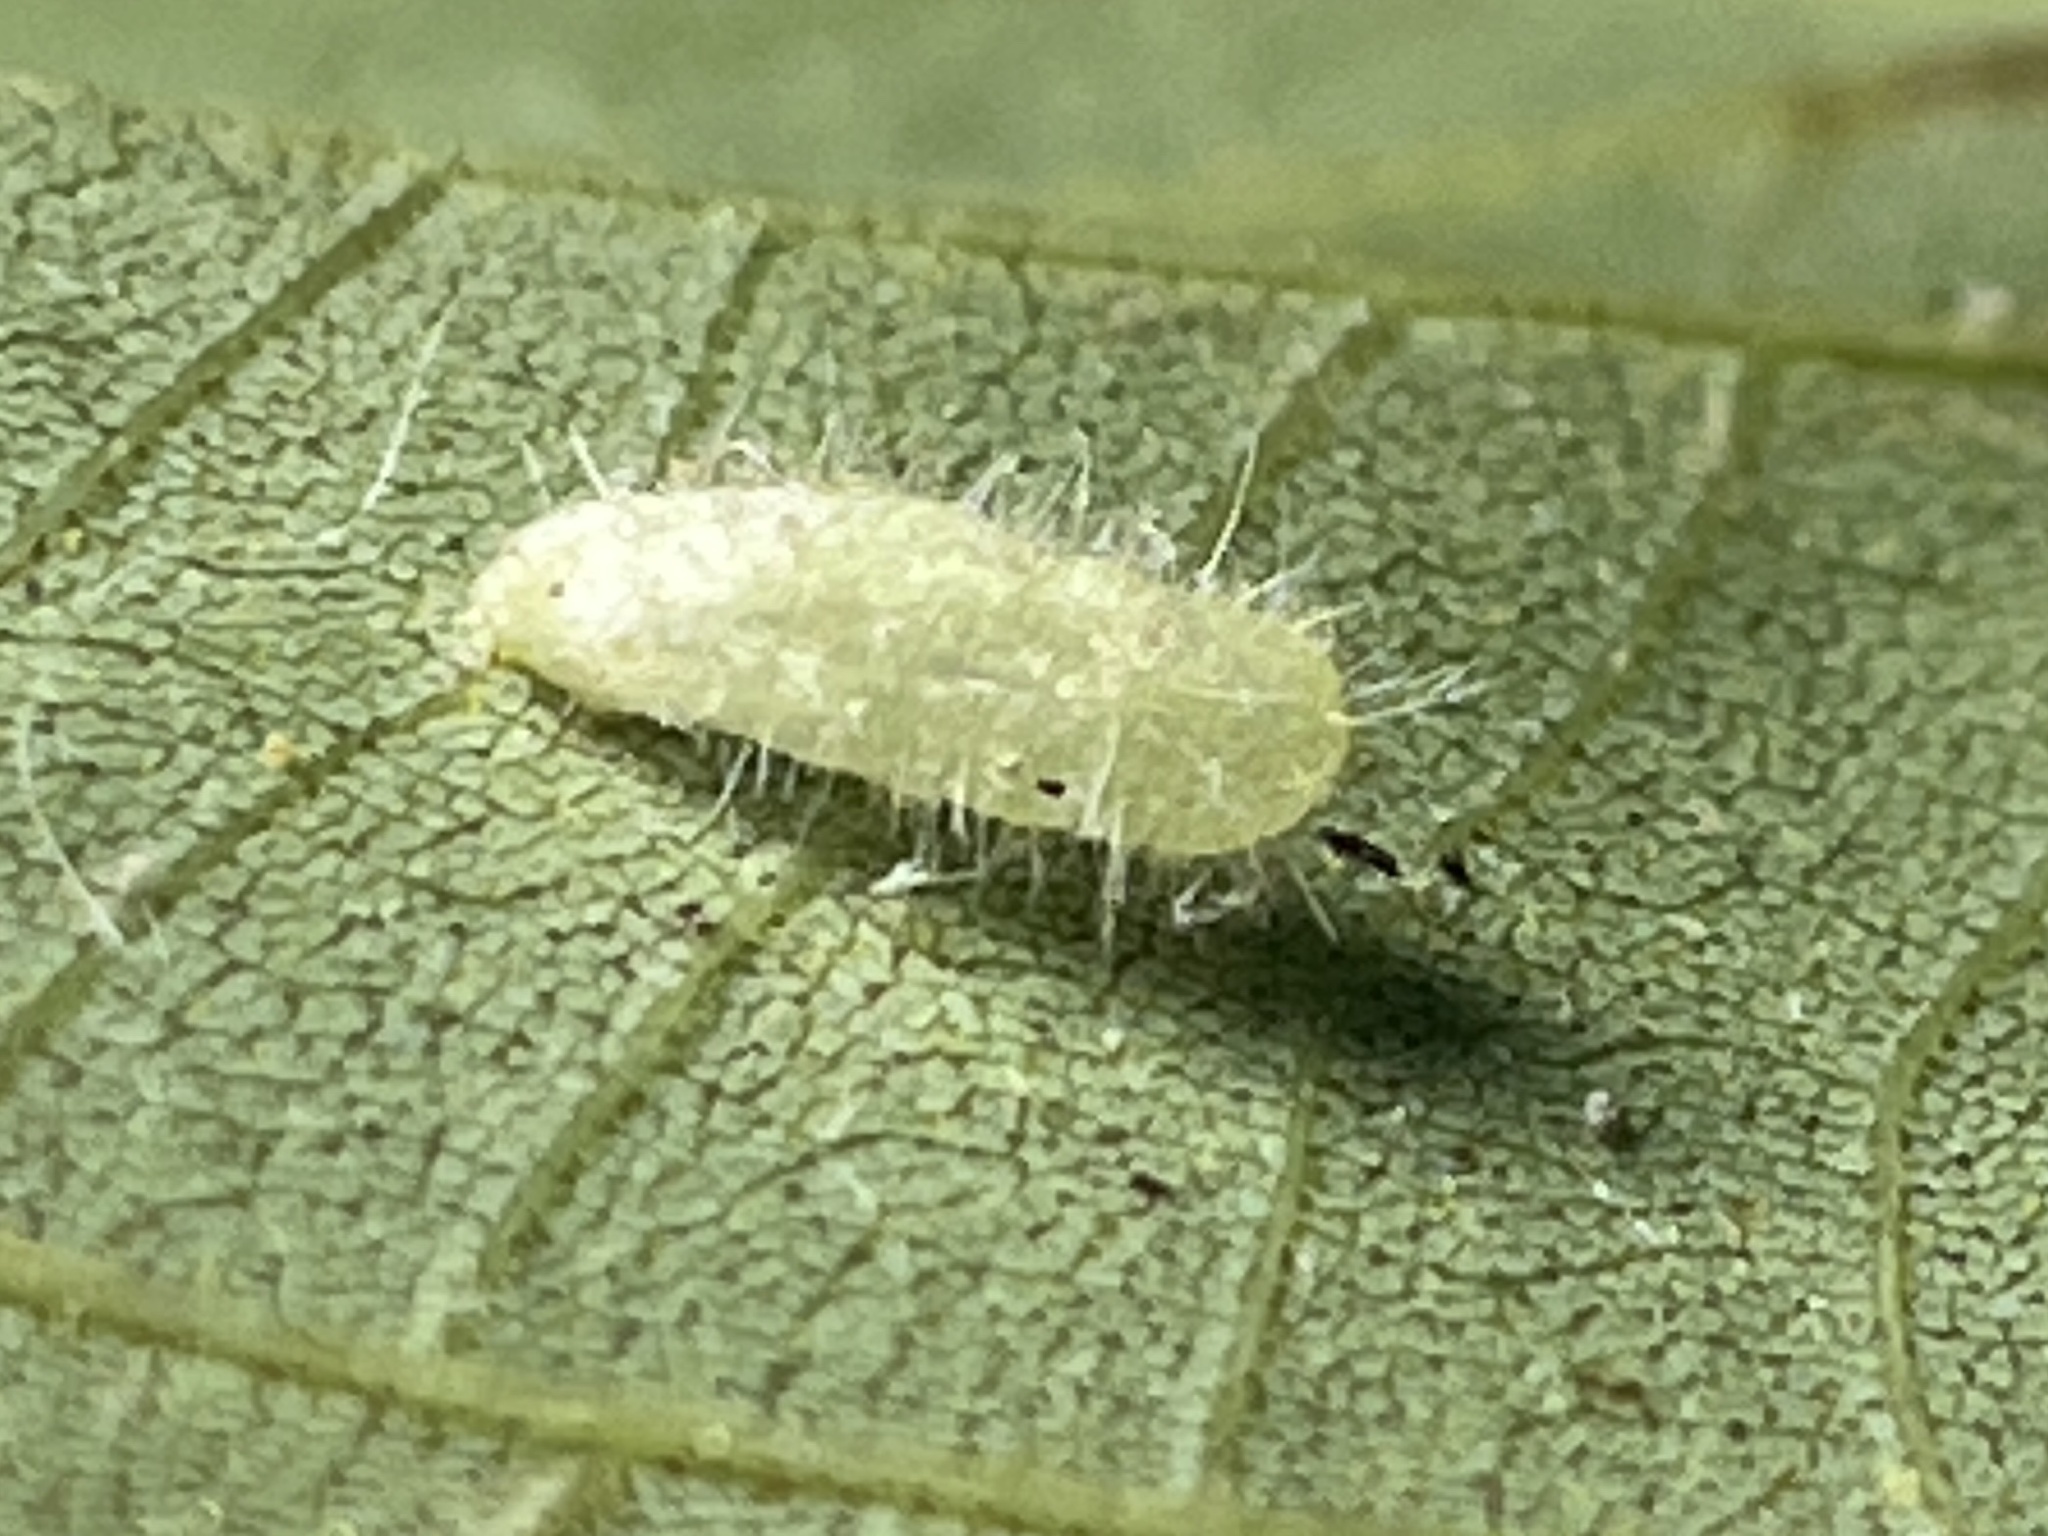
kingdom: Animalia
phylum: Arthropoda
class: Insecta
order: Diptera
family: Cecidomyiidae
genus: Contarinia
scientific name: Contarinia cucumata
